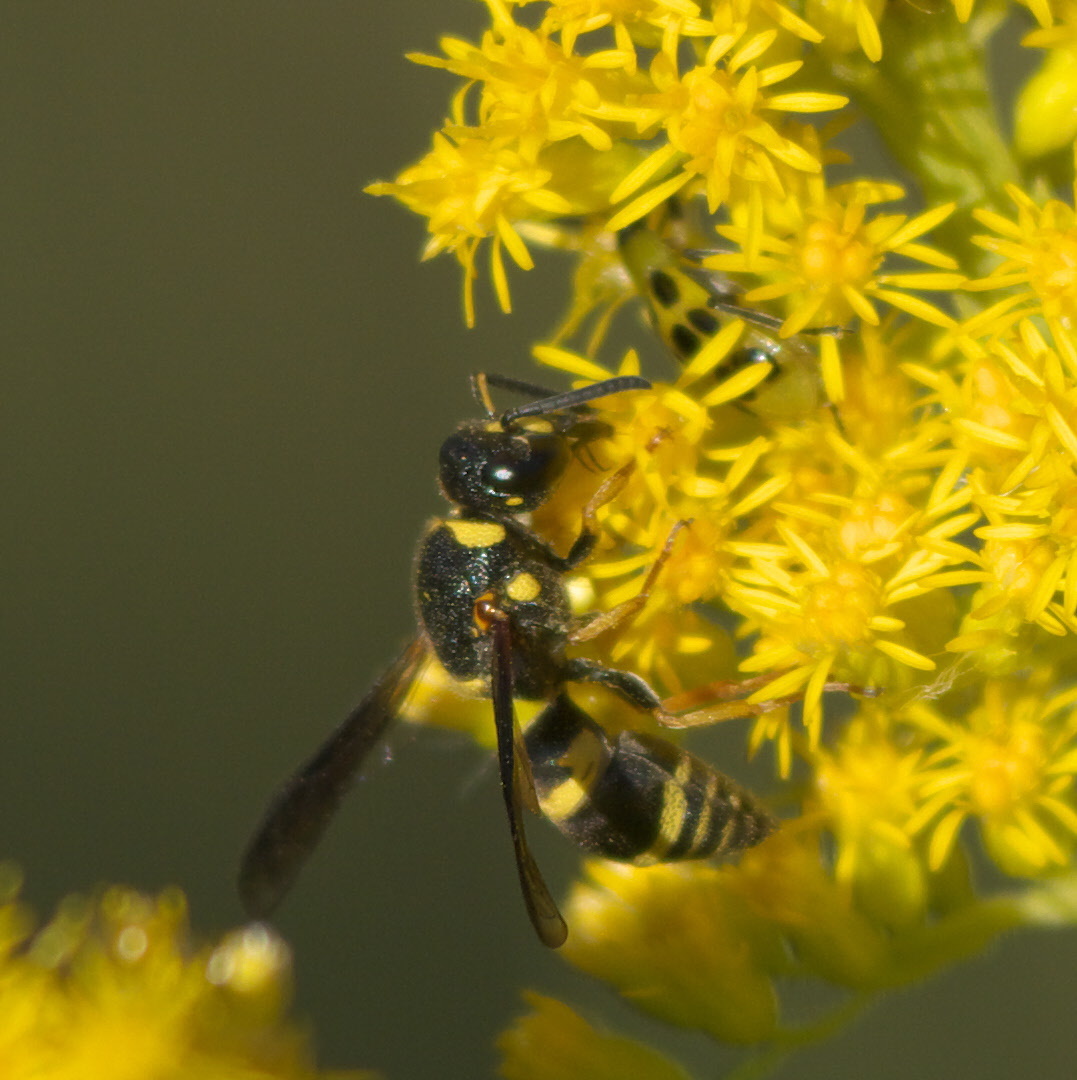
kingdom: Animalia
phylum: Arthropoda
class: Insecta
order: Hymenoptera
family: Eumenidae
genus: Euodynerus
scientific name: Euodynerus foraminatus
